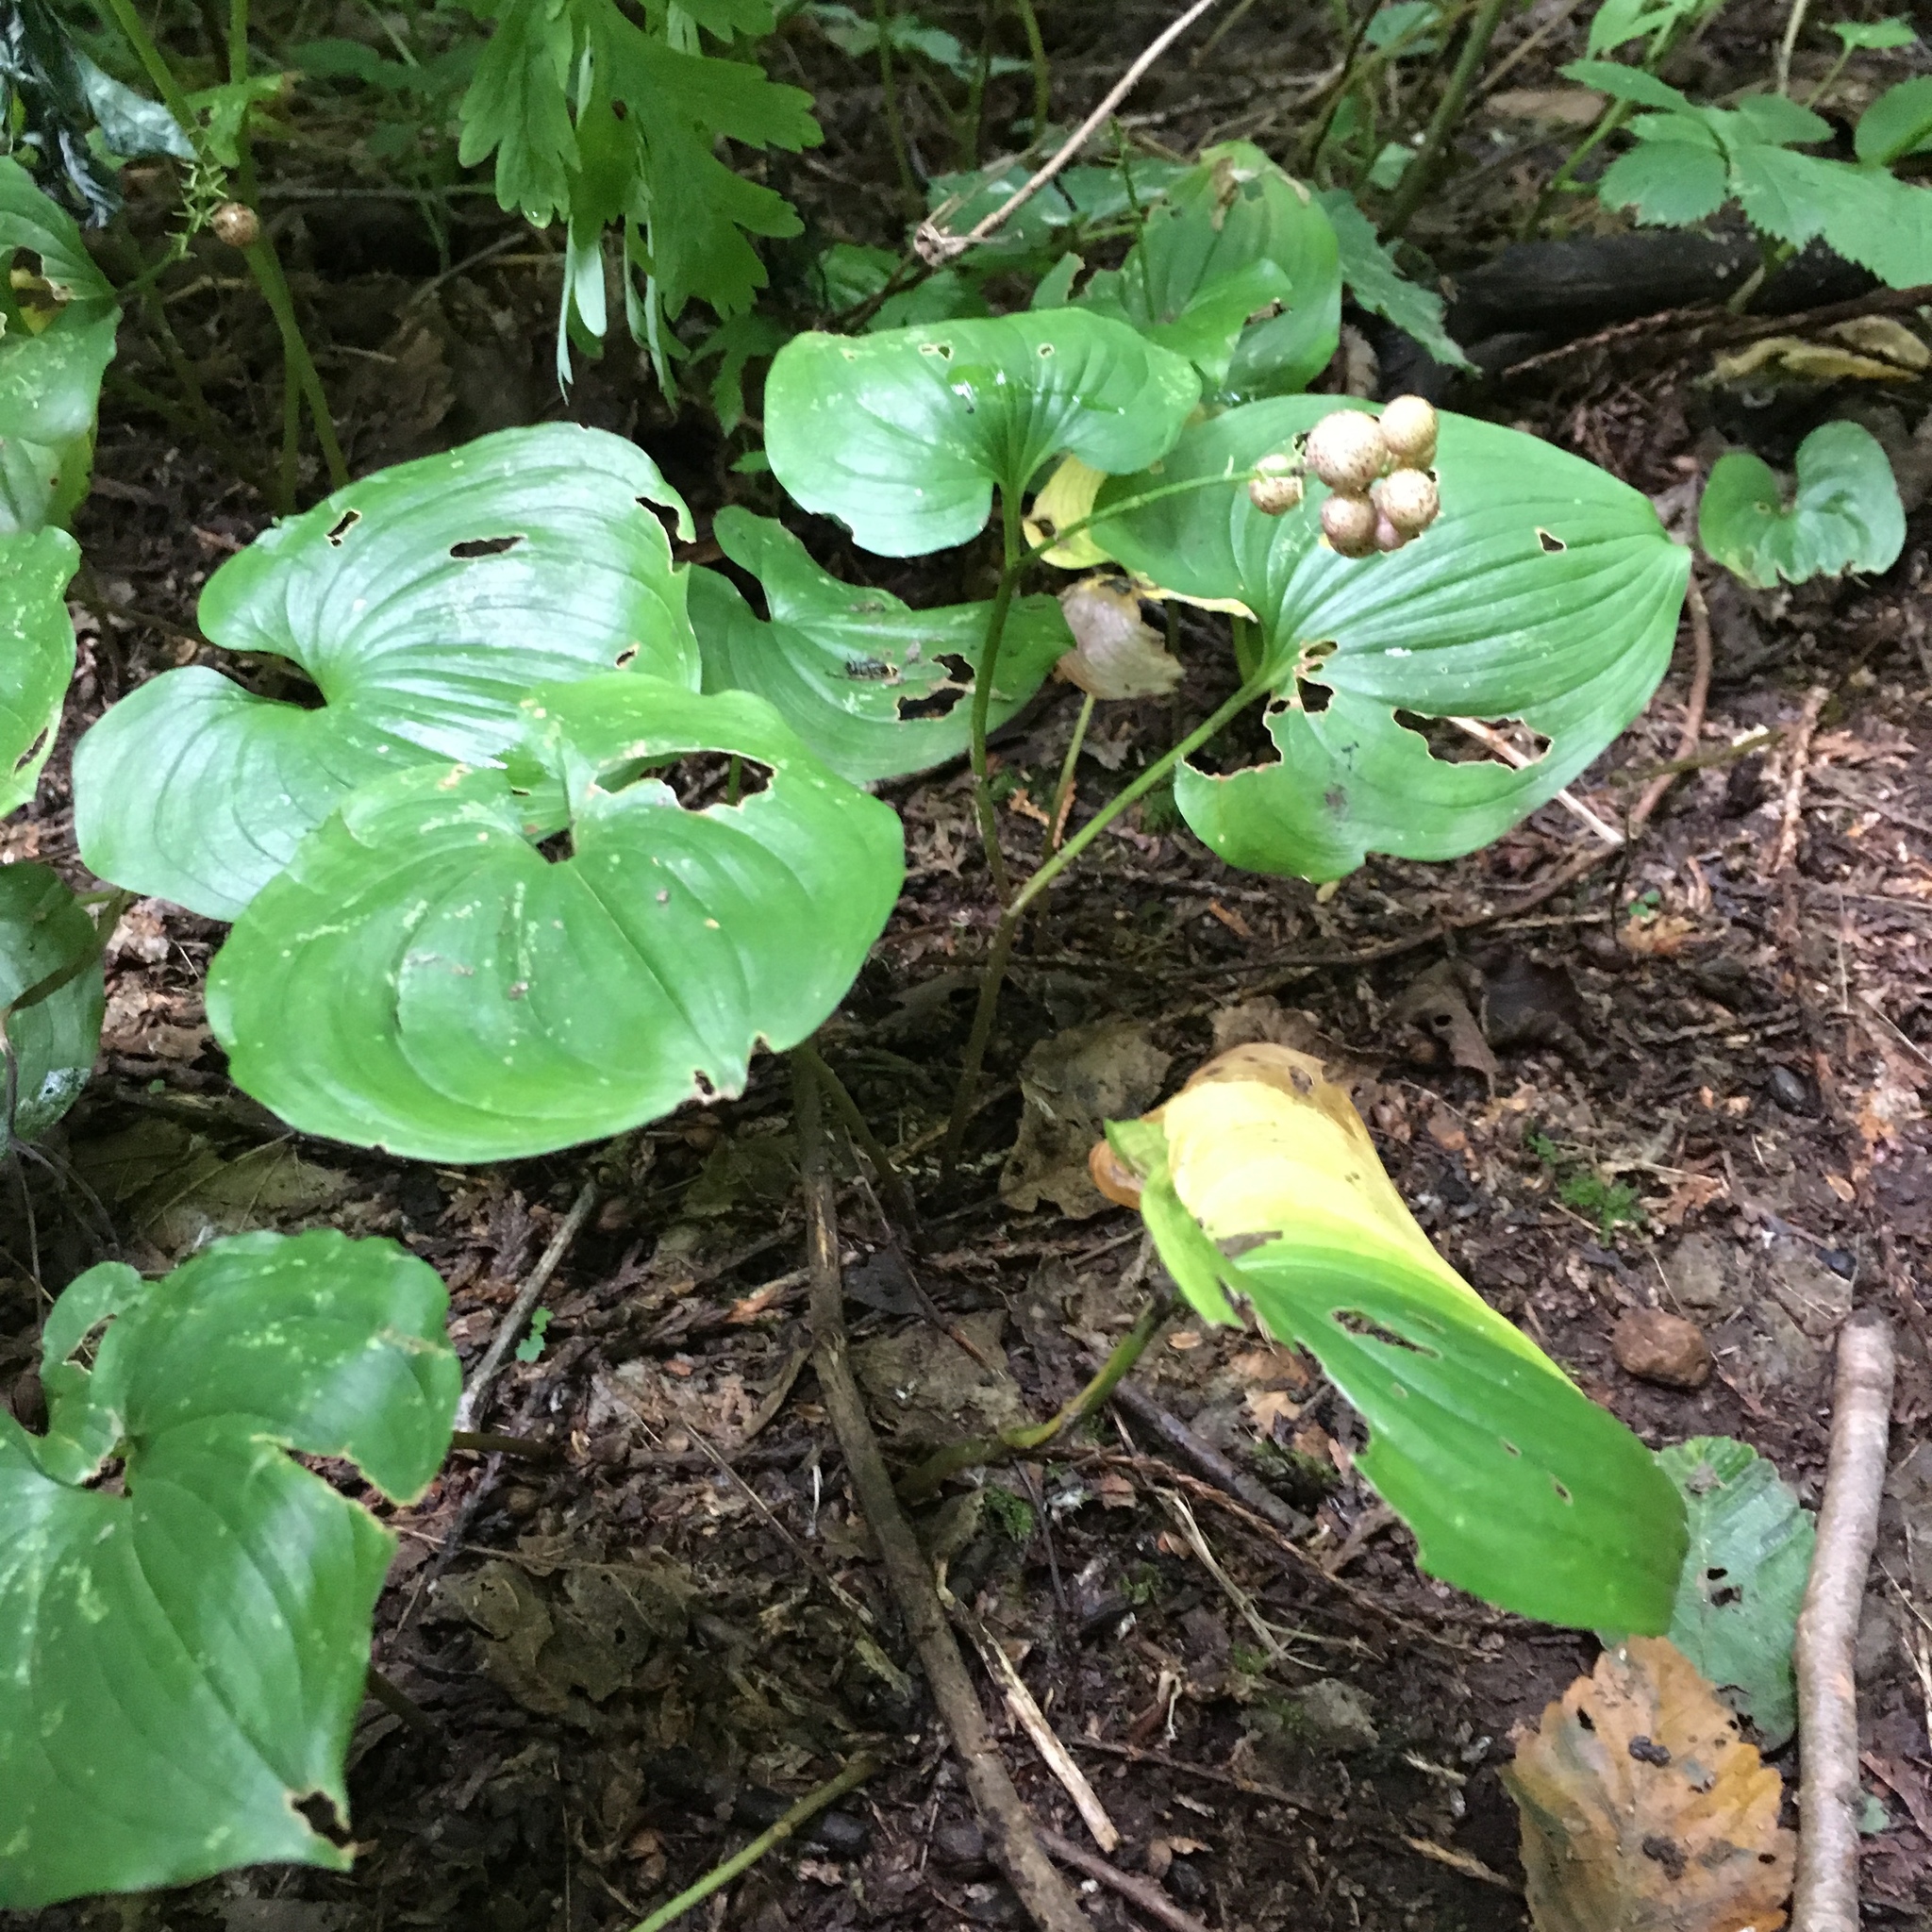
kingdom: Plantae
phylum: Tracheophyta
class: Liliopsida
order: Asparagales
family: Asparagaceae
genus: Maianthemum
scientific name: Maianthemum dilatatum
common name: False lily-of-the-valley
